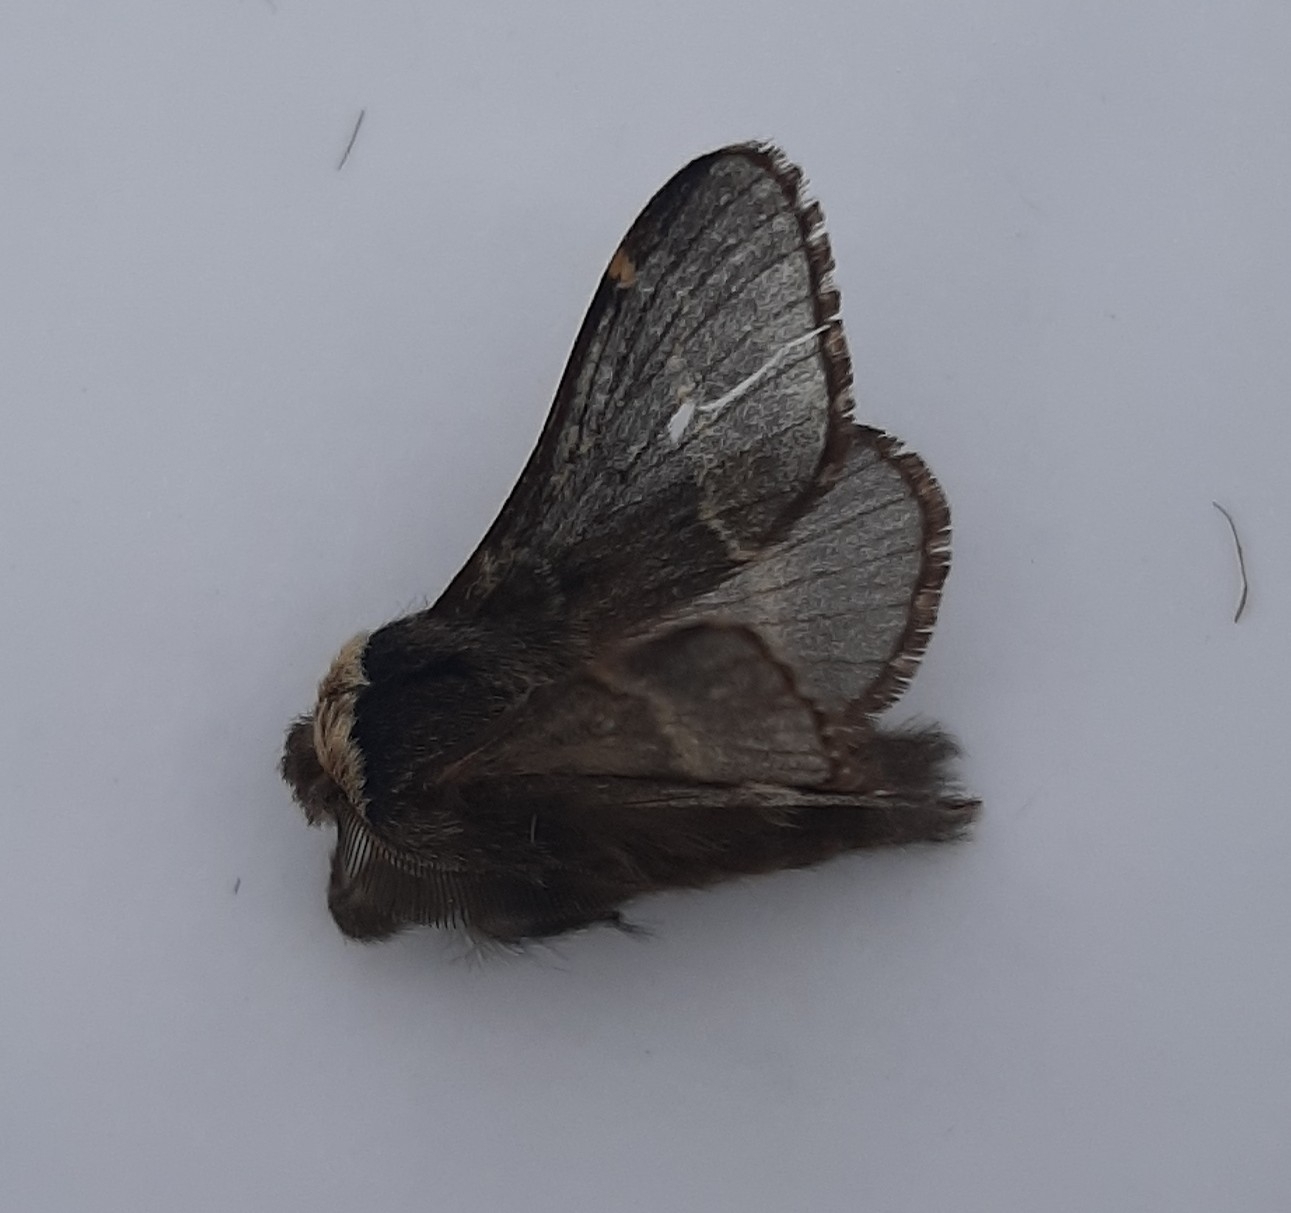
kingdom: Animalia
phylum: Arthropoda
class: Insecta
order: Lepidoptera
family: Lasiocampidae
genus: Poecilocampa
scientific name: Poecilocampa populi
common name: December moth
